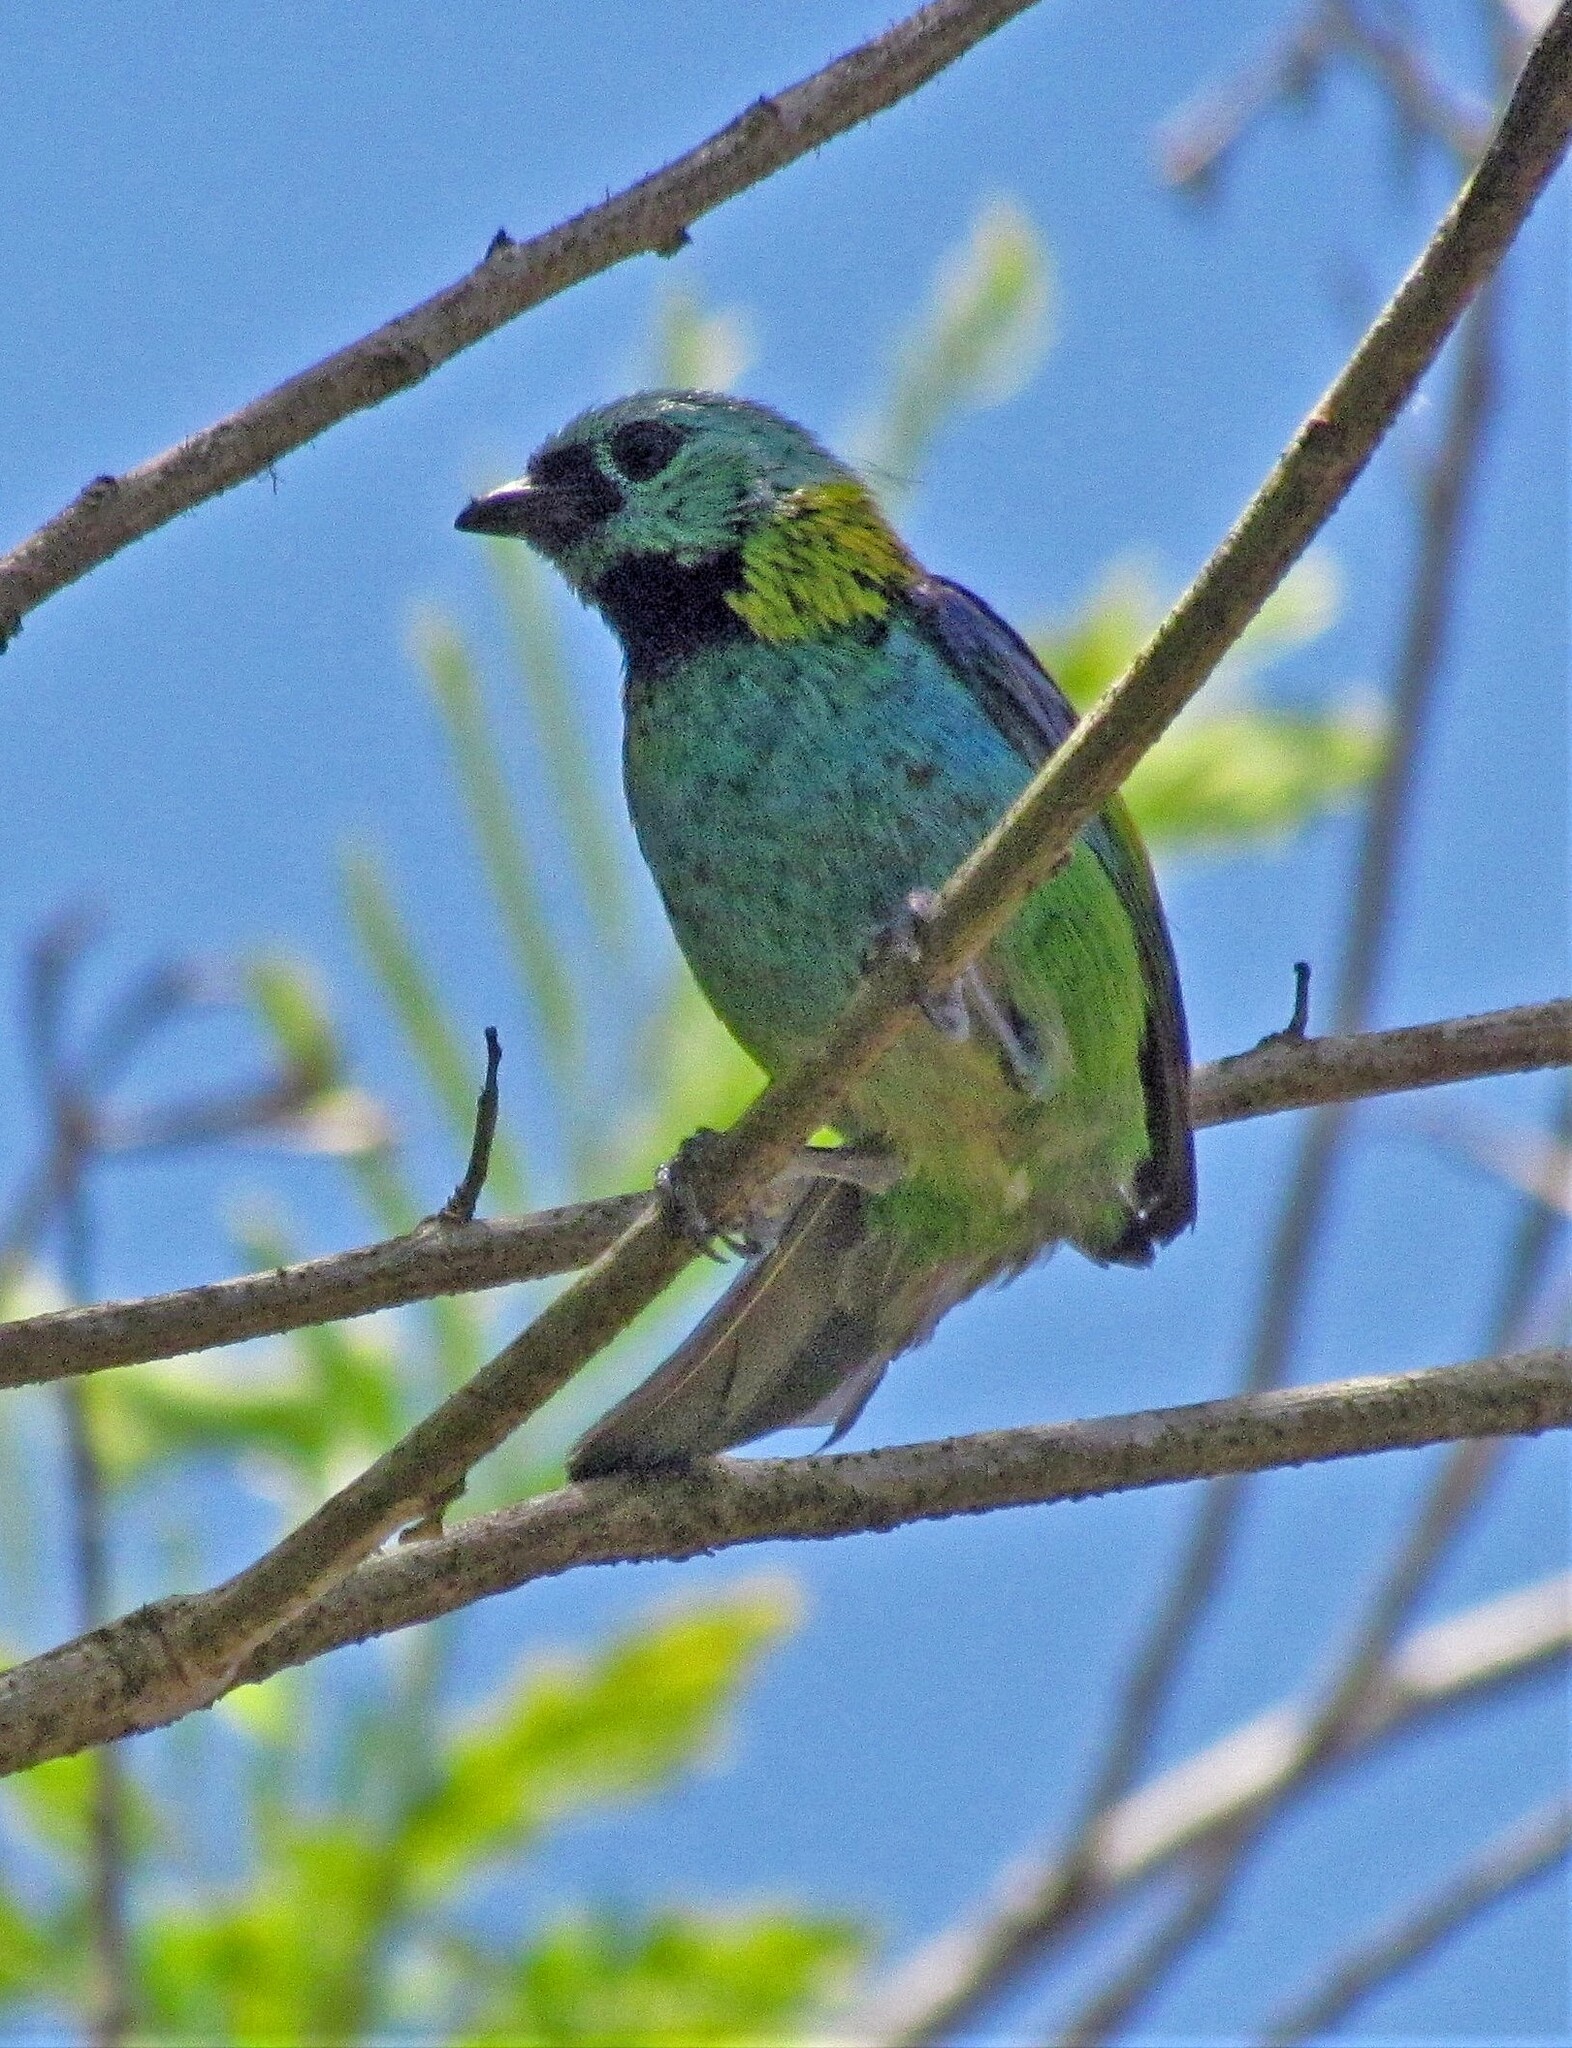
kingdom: Animalia
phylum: Chordata
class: Aves
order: Passeriformes
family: Thraupidae
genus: Tangara
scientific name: Tangara seledon
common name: Green-headed tanager
